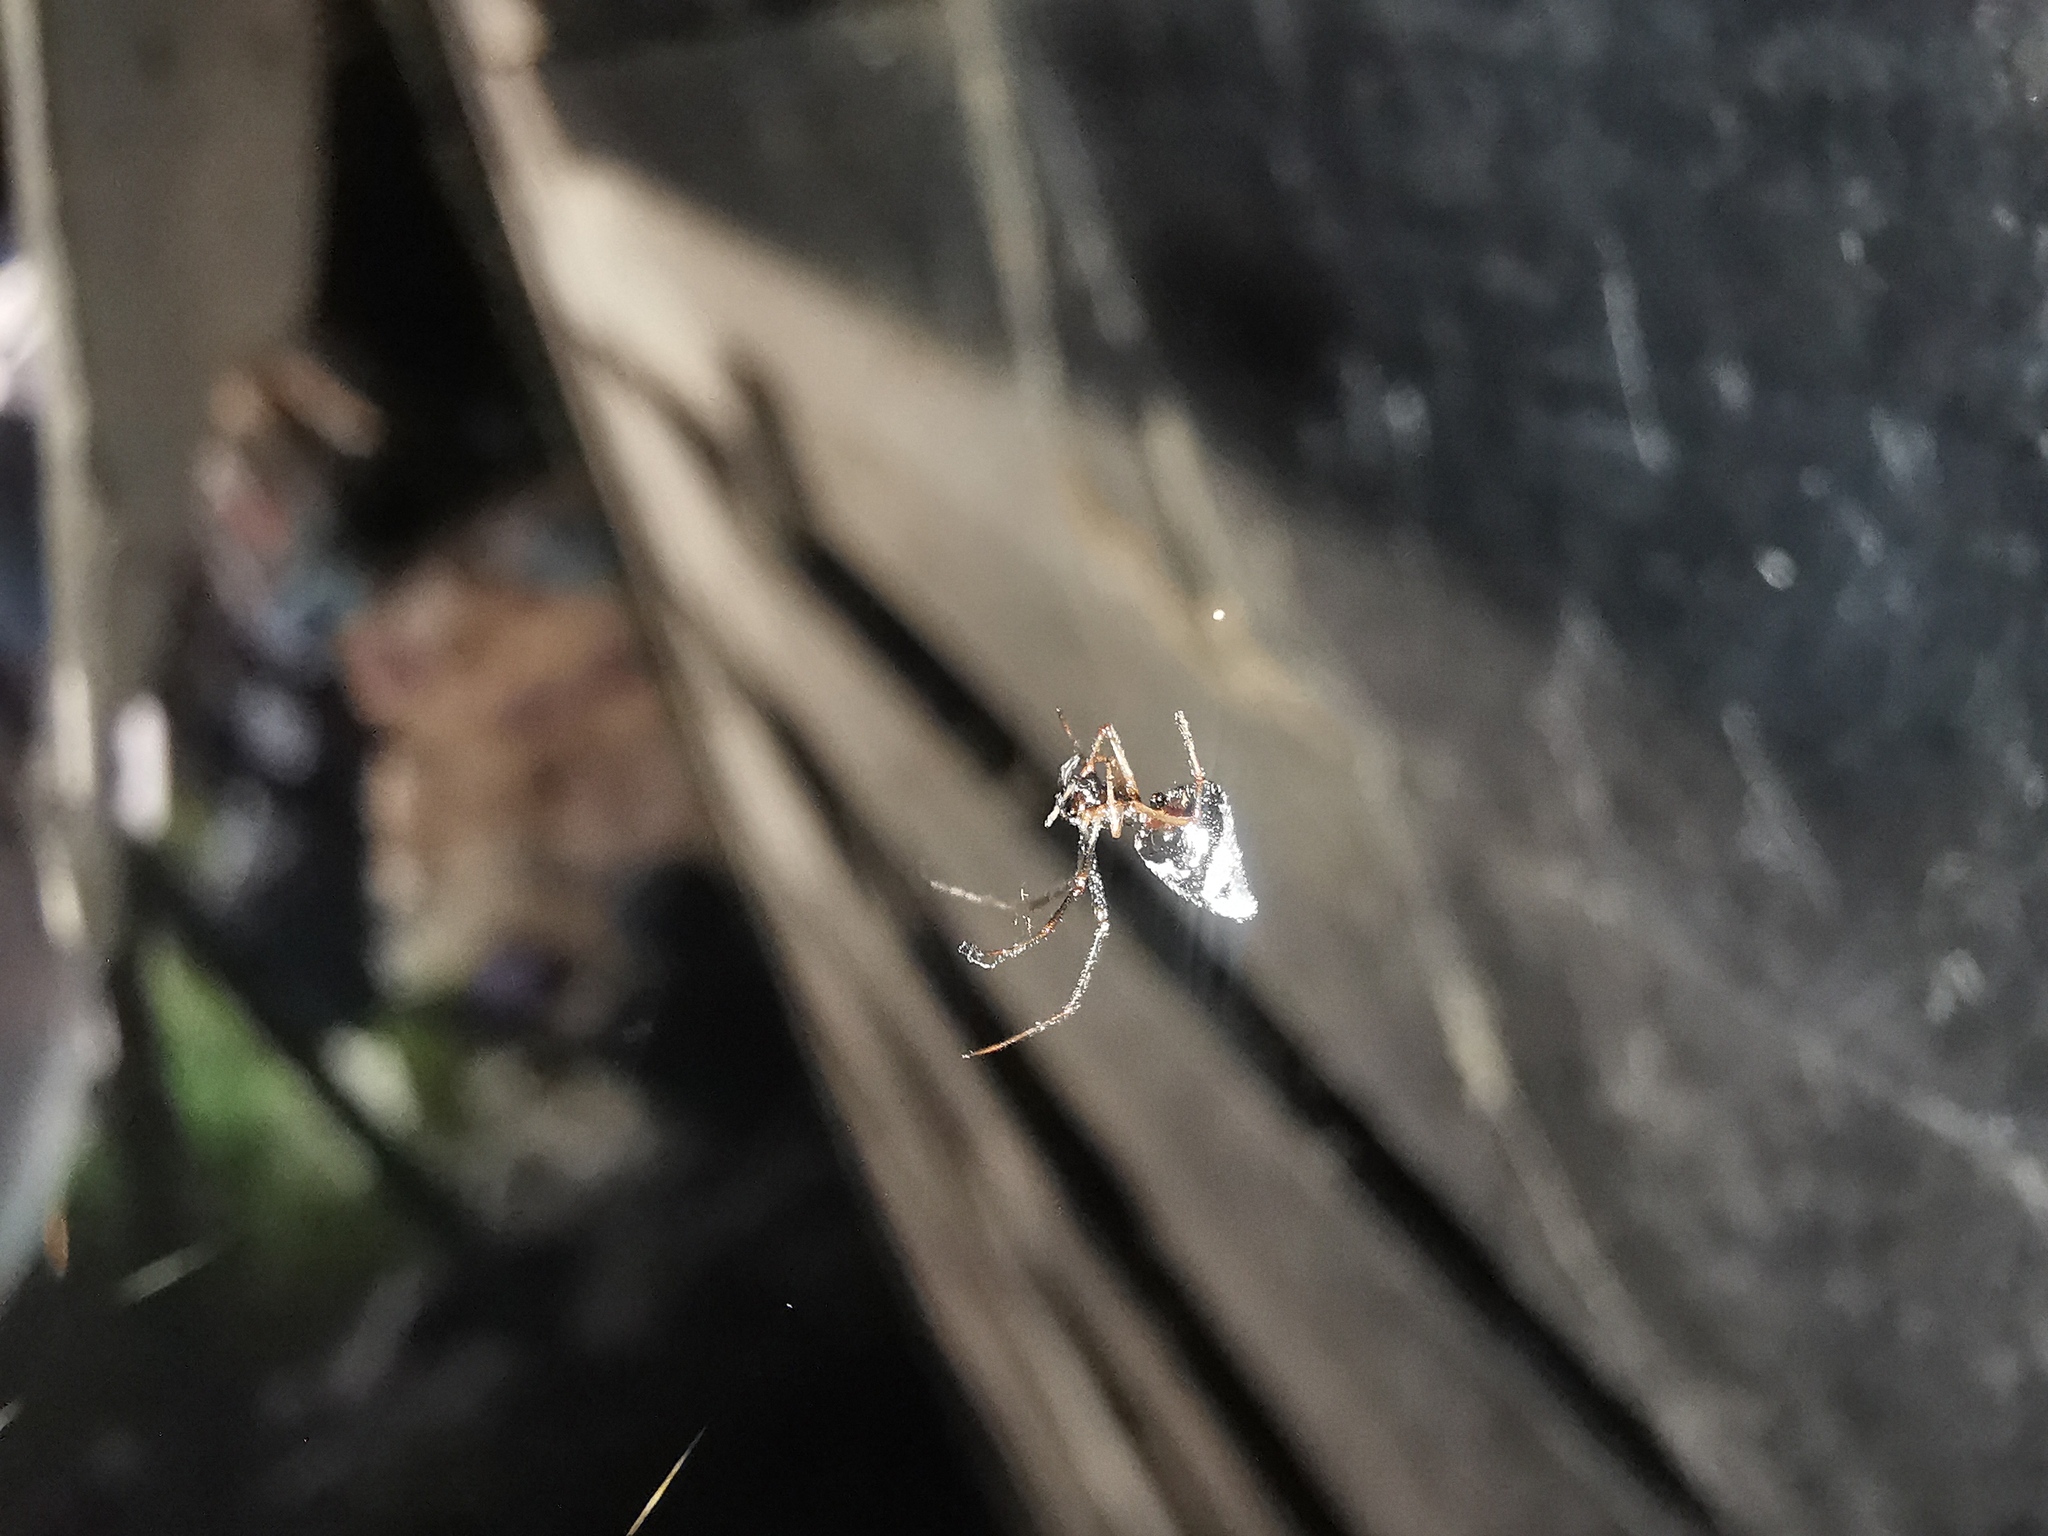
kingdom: Animalia
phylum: Arthropoda
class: Arachnida
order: Araneae
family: Theridiidae
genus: Argyrodes
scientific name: Argyrodes argyrodes
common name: Dewdrop spider
